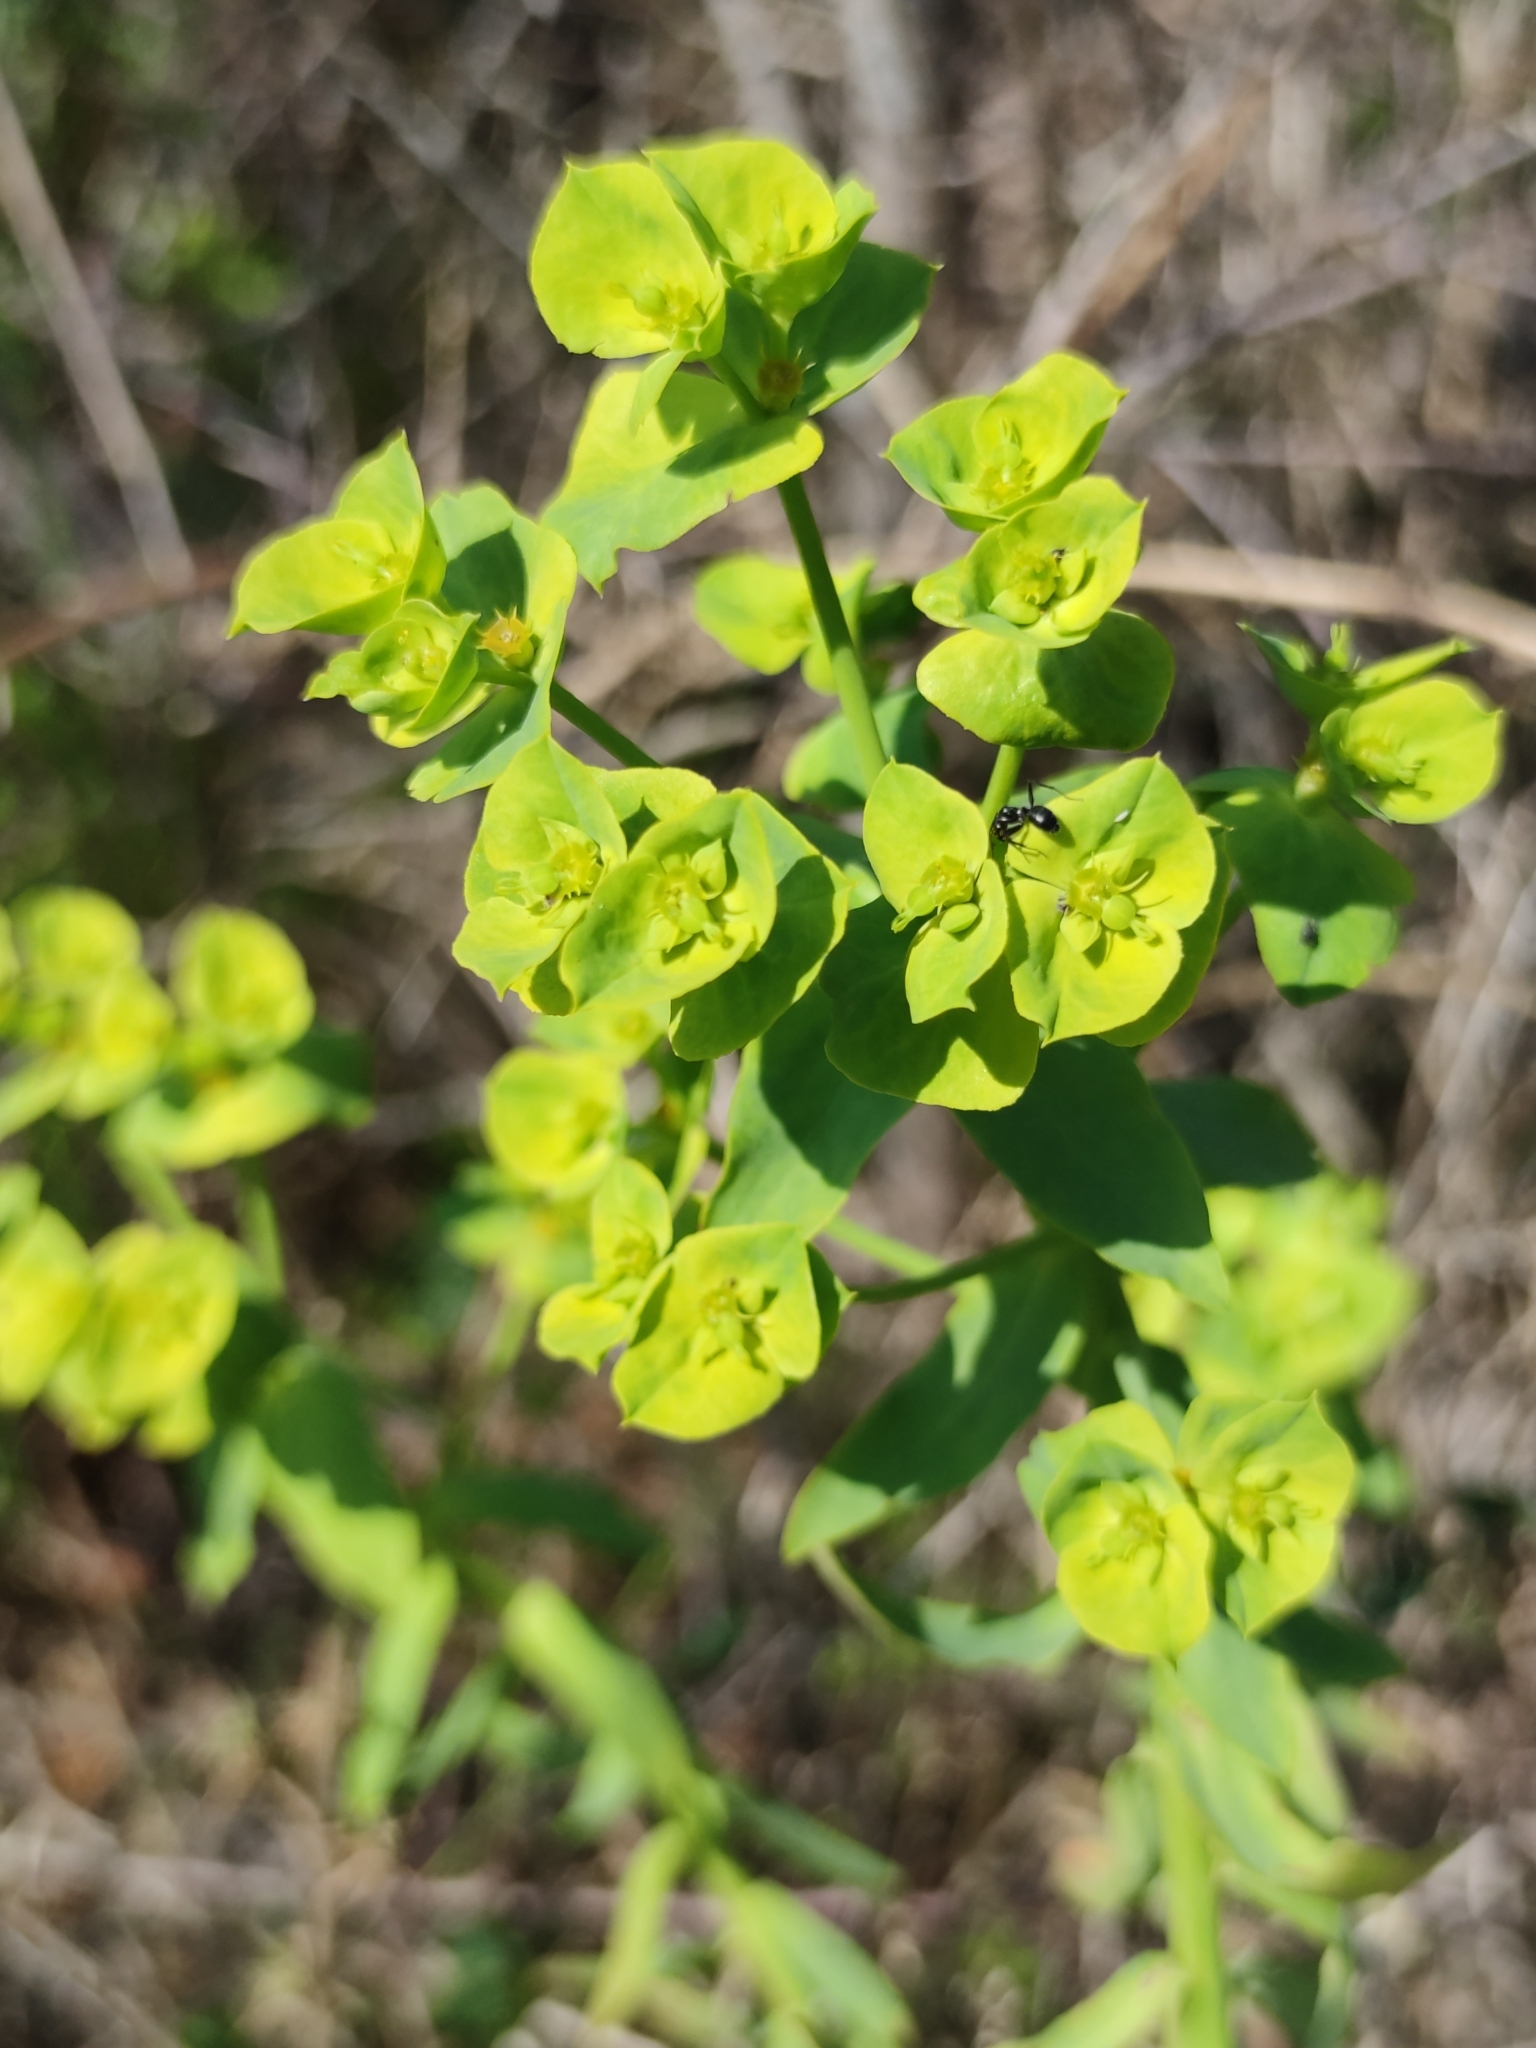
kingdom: Plantae
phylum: Tracheophyta
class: Magnoliopsida
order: Malpighiales
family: Euphorbiaceae
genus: Euphorbia
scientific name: Euphorbia terracina
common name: Geraldton carnation weed
